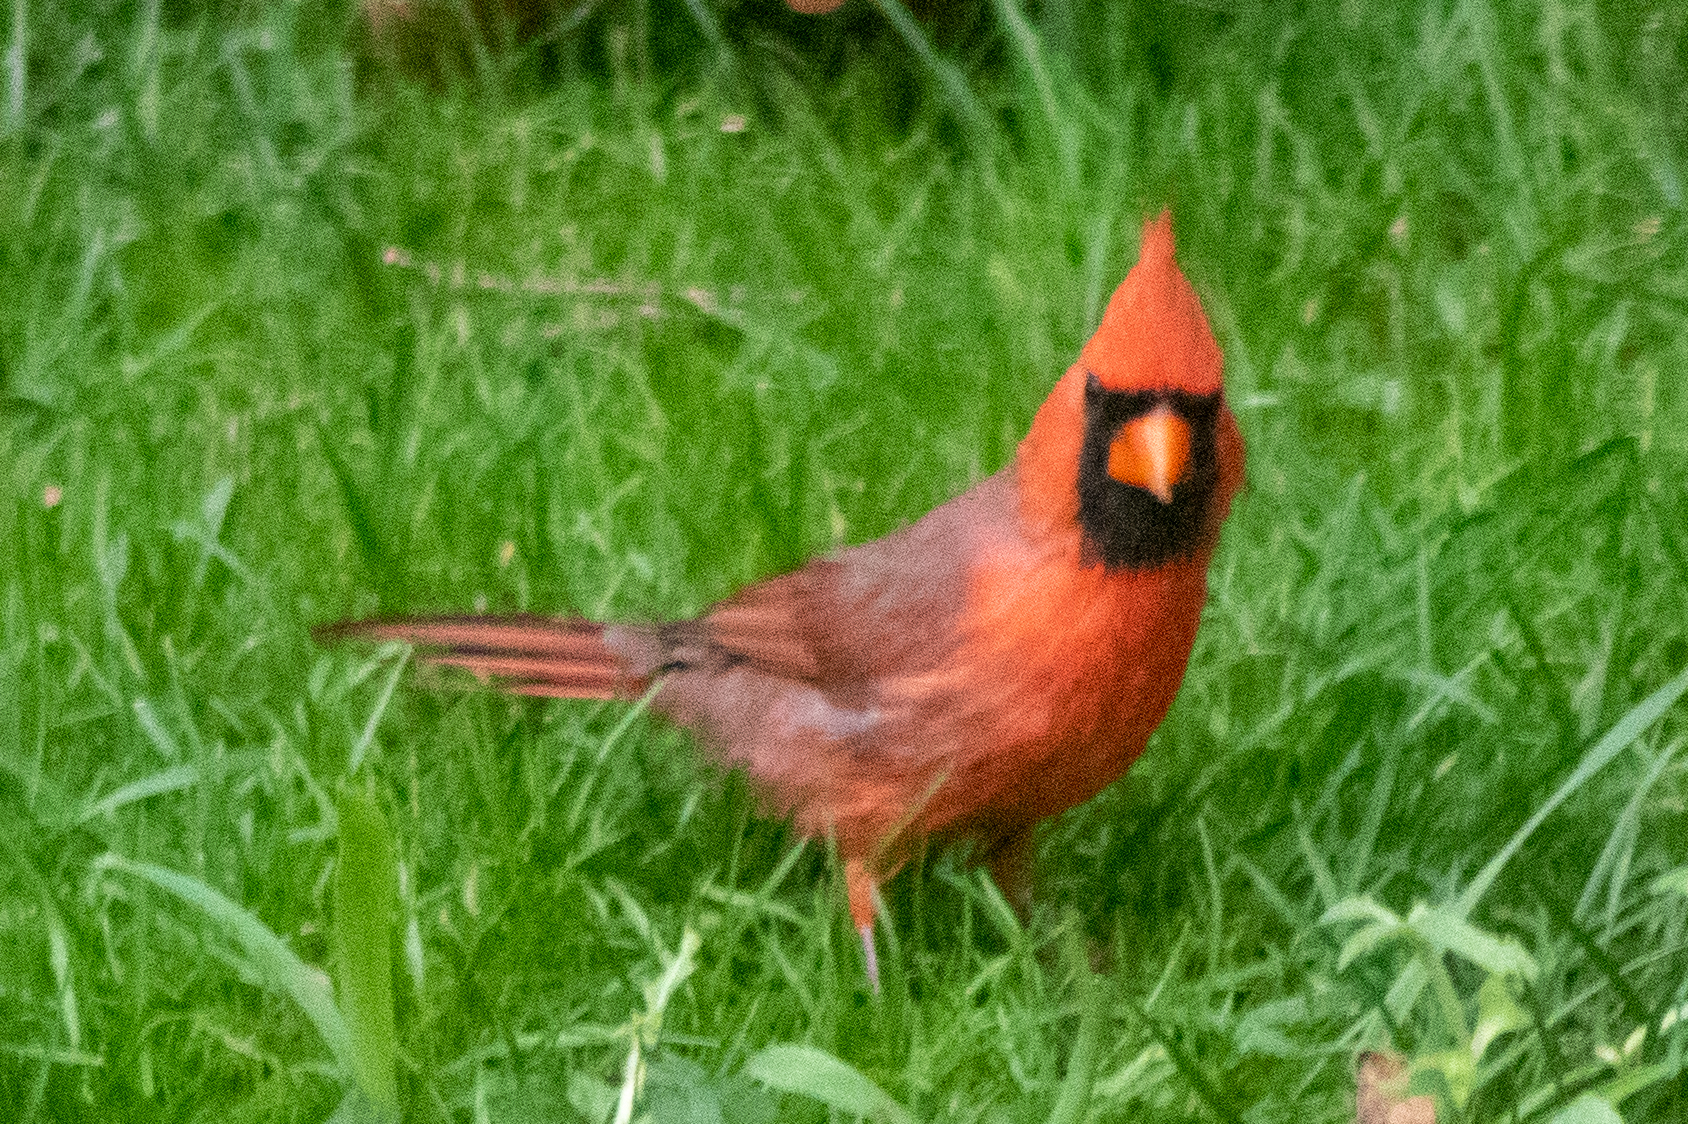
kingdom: Animalia
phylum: Chordata
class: Aves
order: Passeriformes
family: Cardinalidae
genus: Cardinalis
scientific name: Cardinalis cardinalis
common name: Northern cardinal
